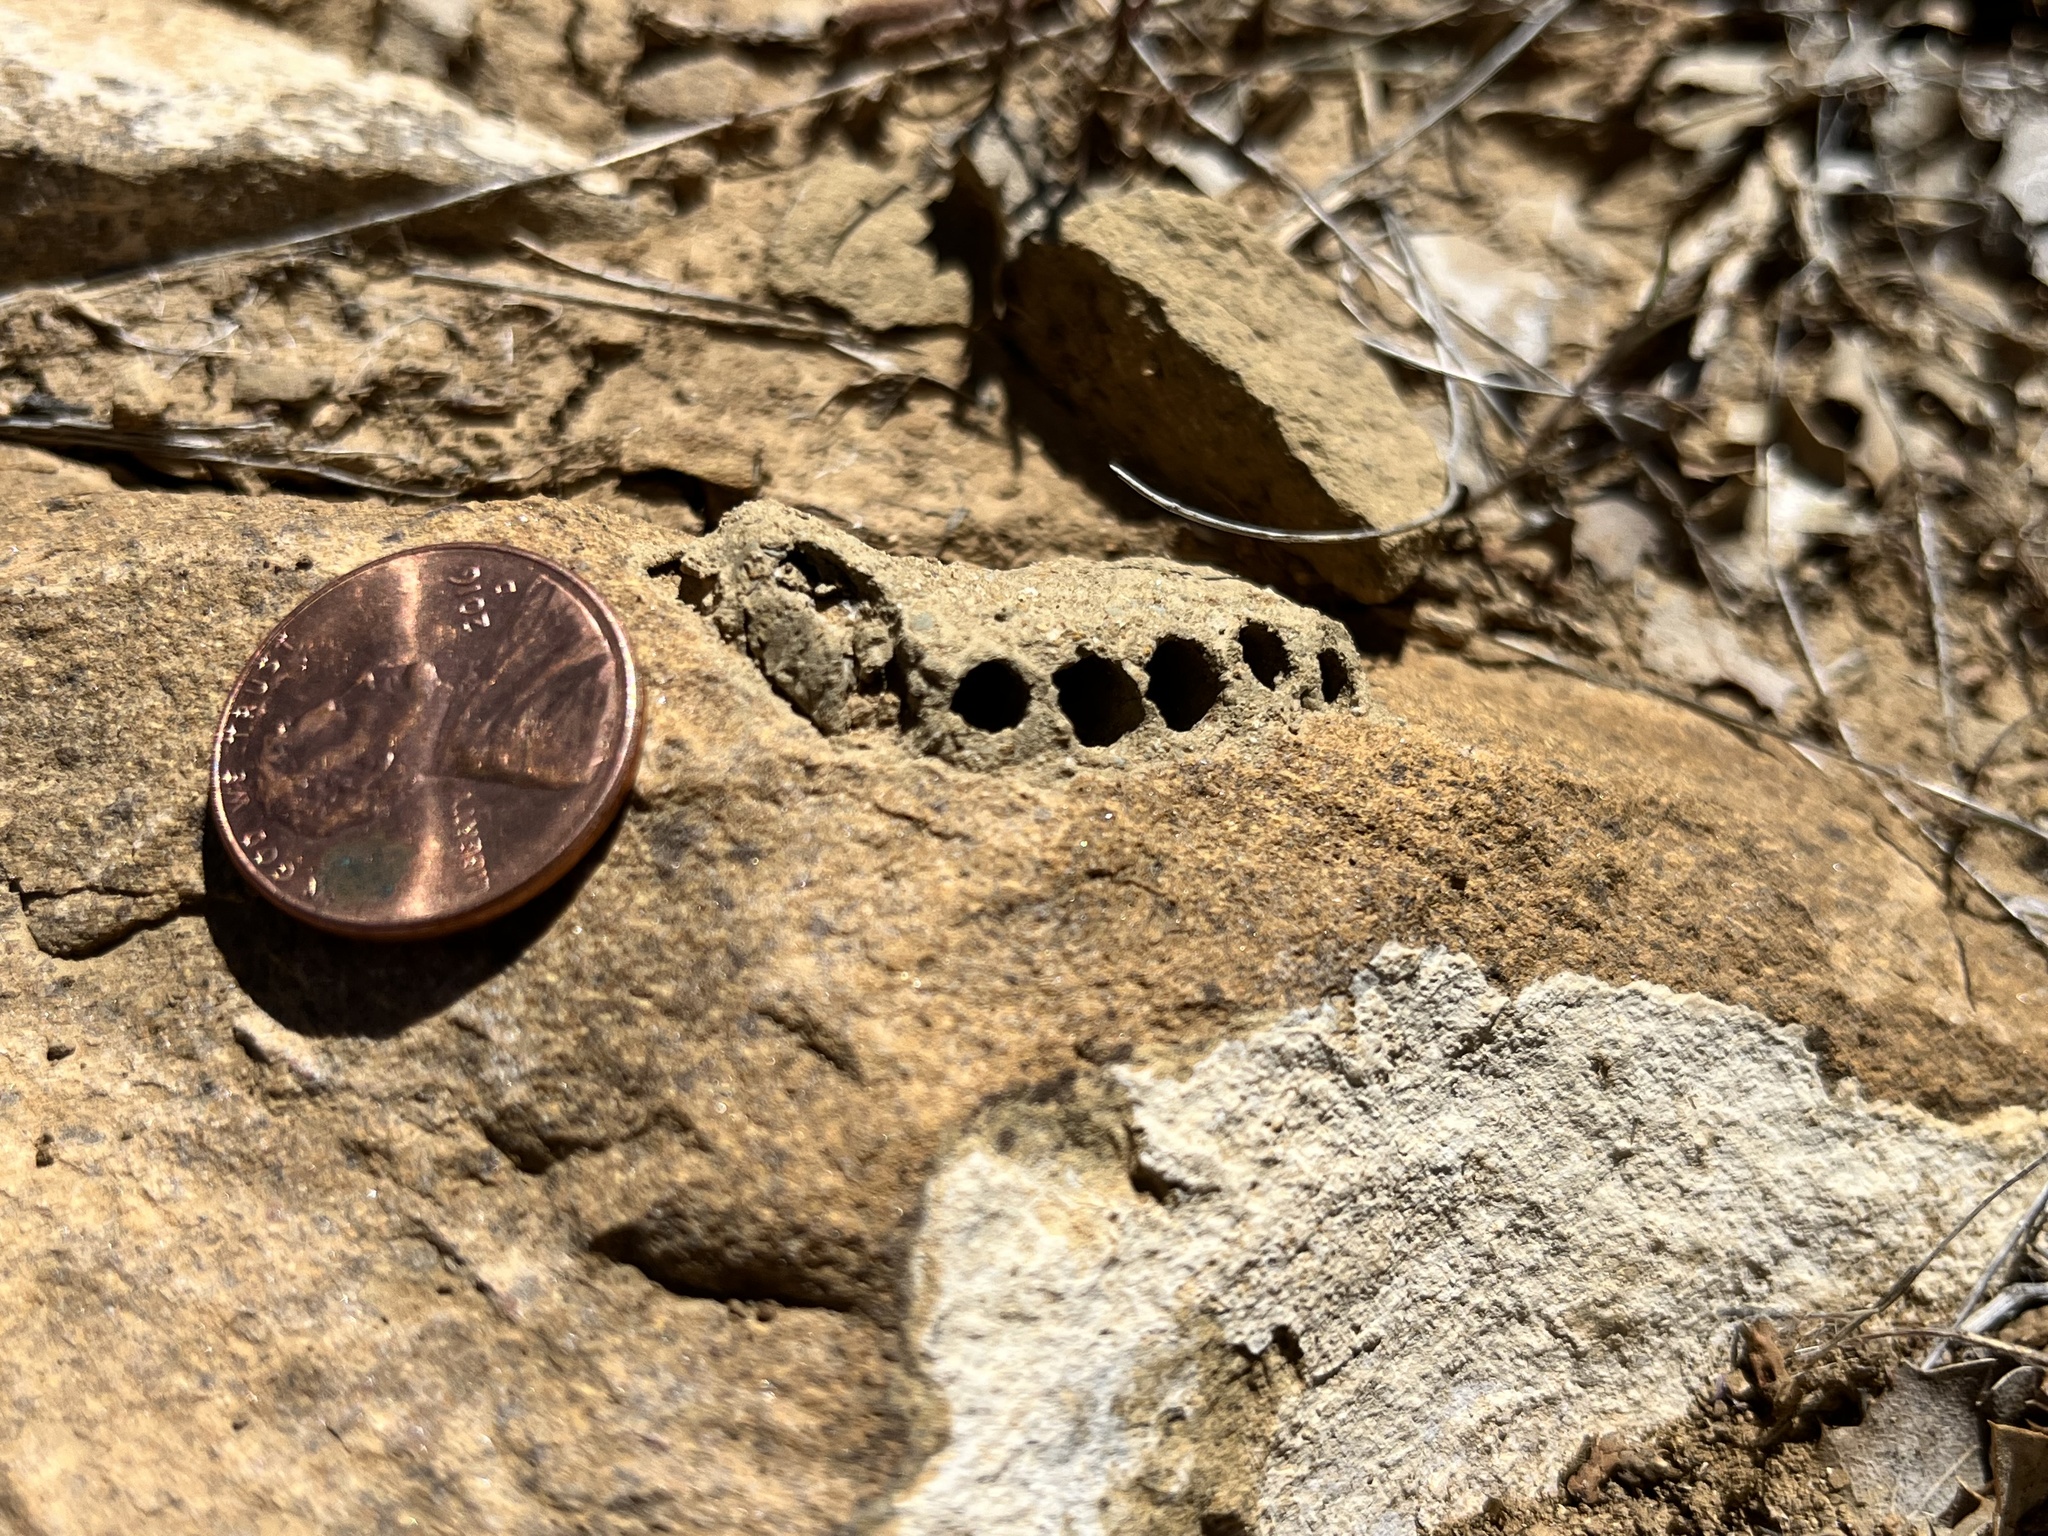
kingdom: Animalia
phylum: Arthropoda
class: Insecta
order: Hymenoptera
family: Masaridae
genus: Pseudomasaris
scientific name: Pseudomasaris
